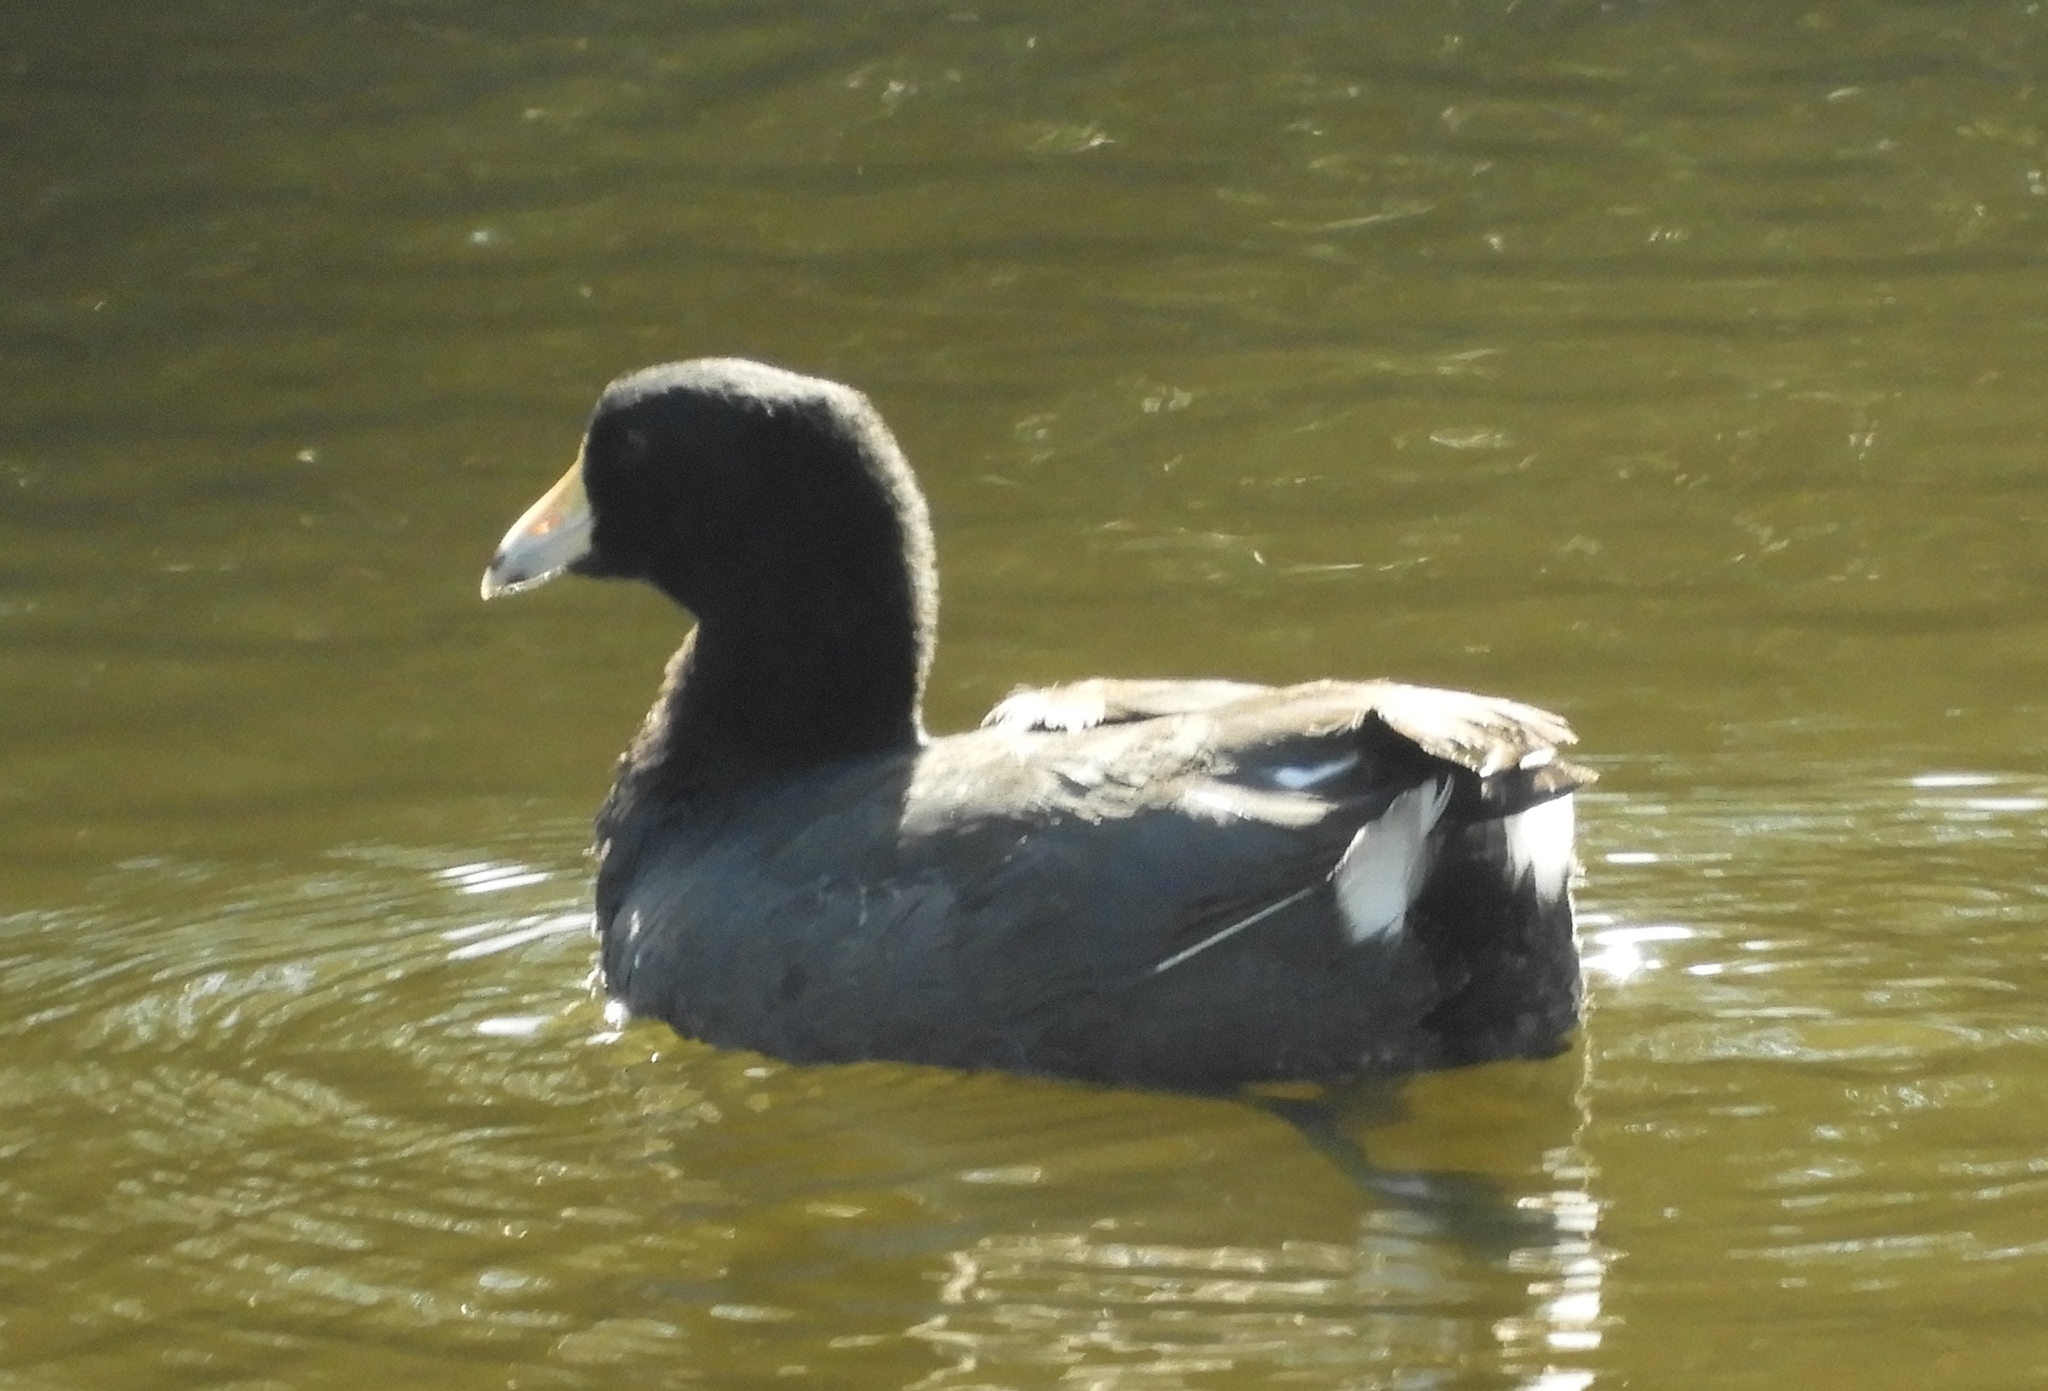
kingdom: Animalia
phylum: Chordata
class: Aves
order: Gruiformes
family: Rallidae
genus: Fulica
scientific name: Fulica americana
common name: American coot
